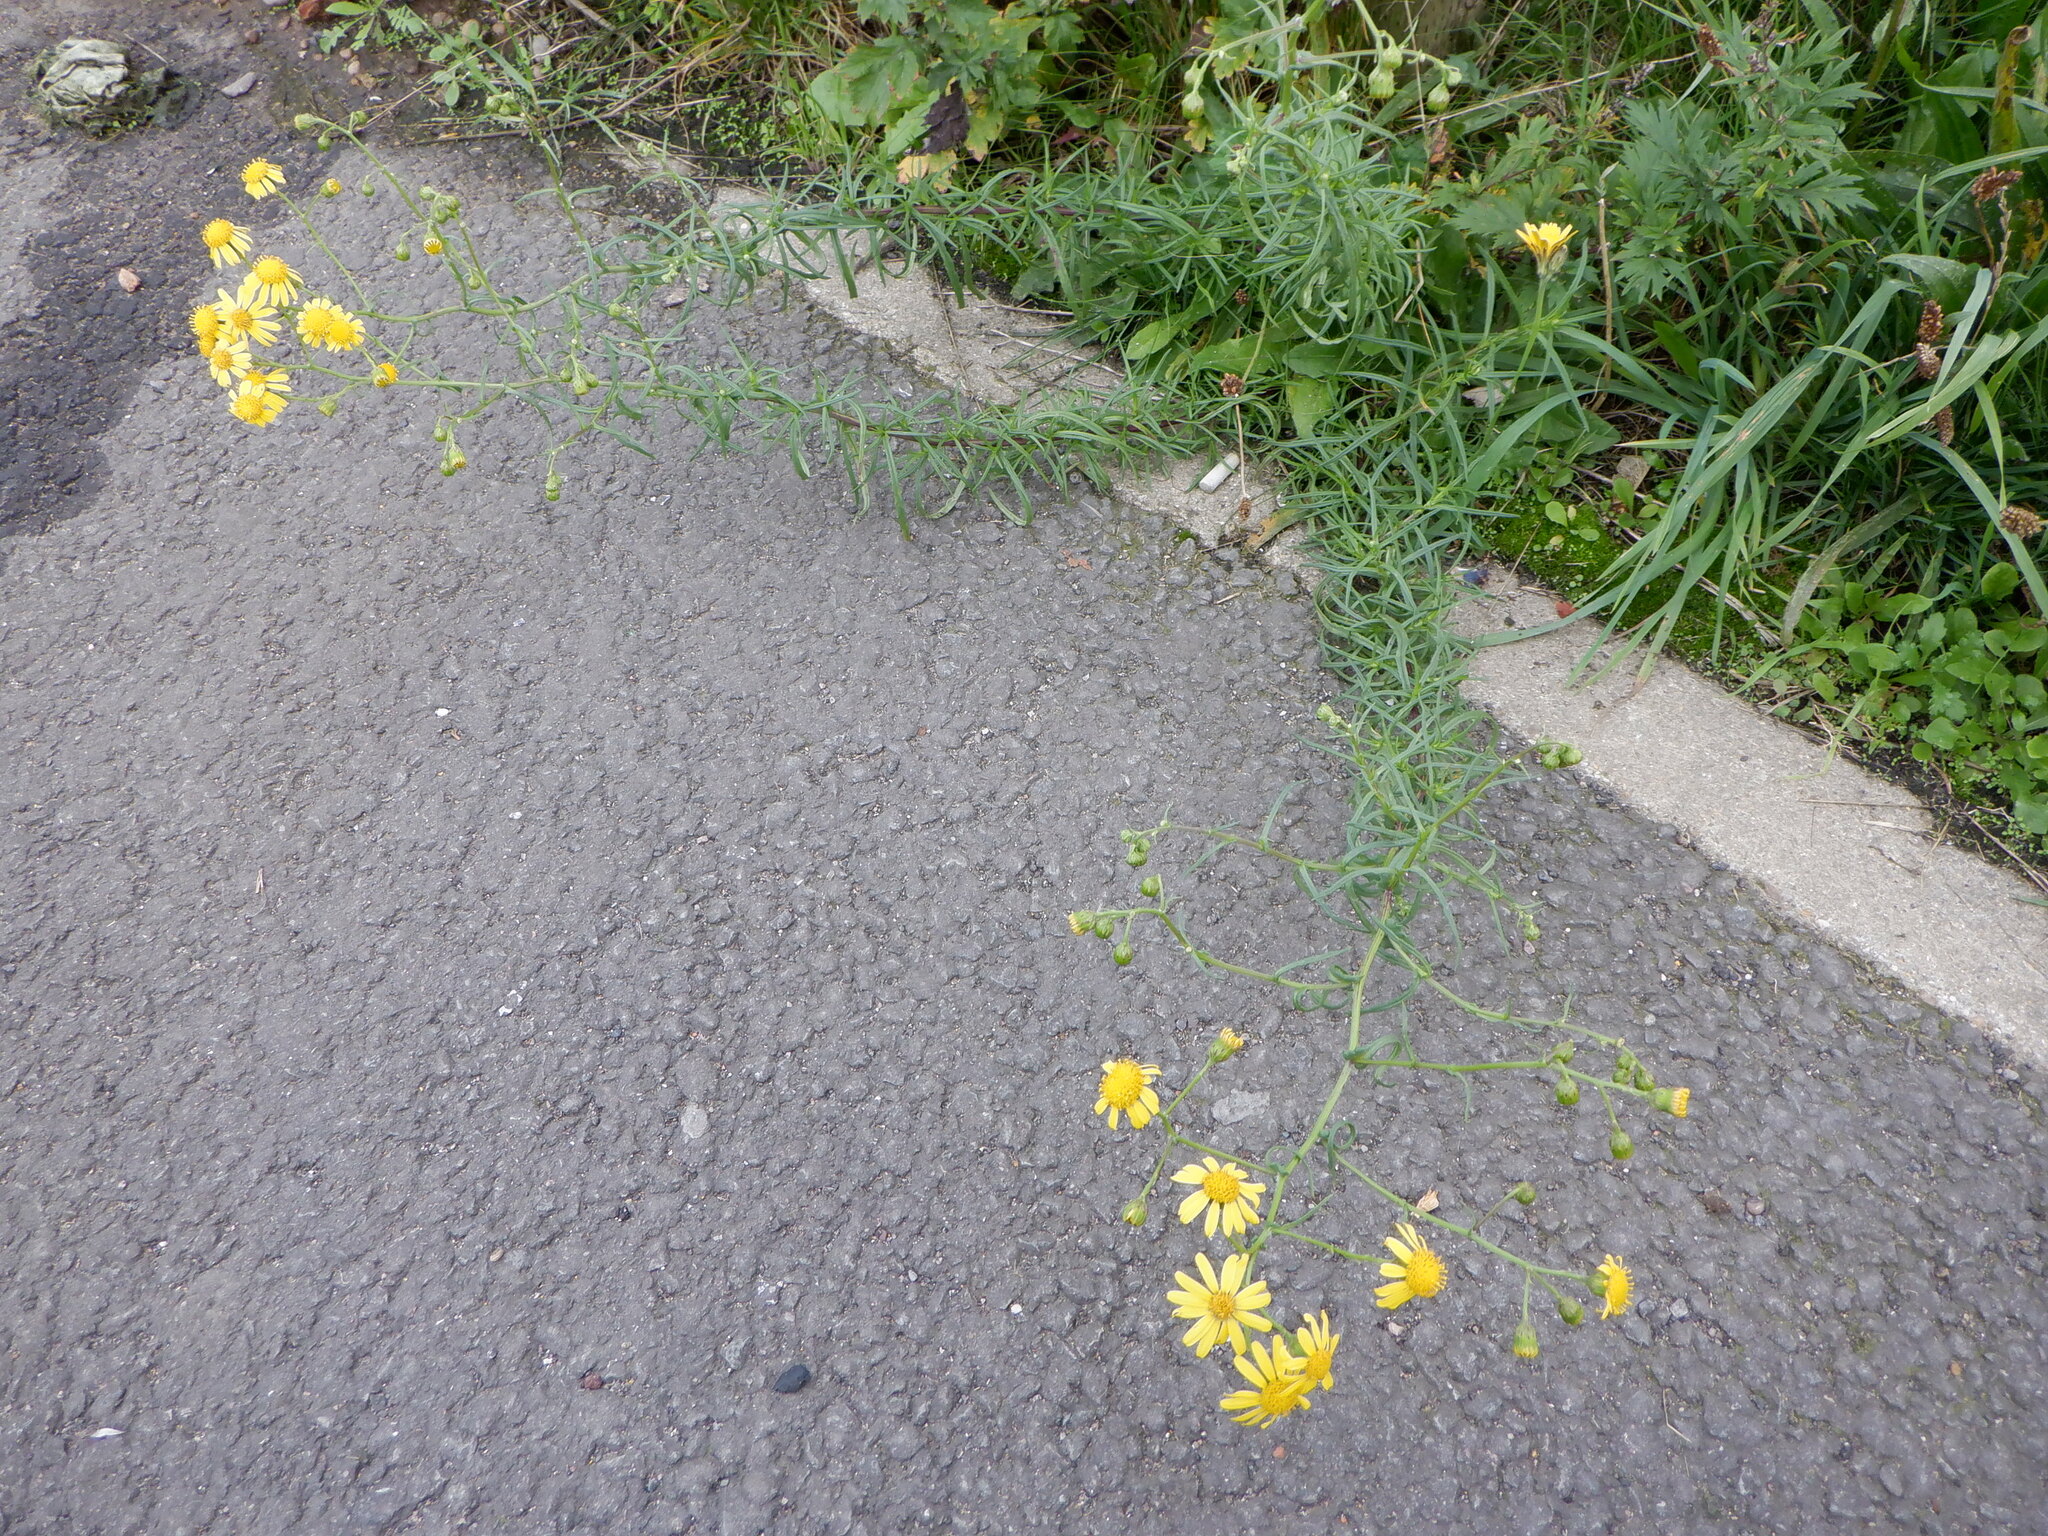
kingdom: Plantae
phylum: Tracheophyta
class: Magnoliopsida
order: Asterales
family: Asteraceae
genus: Senecio
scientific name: Senecio inaequidens
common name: Narrow-leaved ragwort
